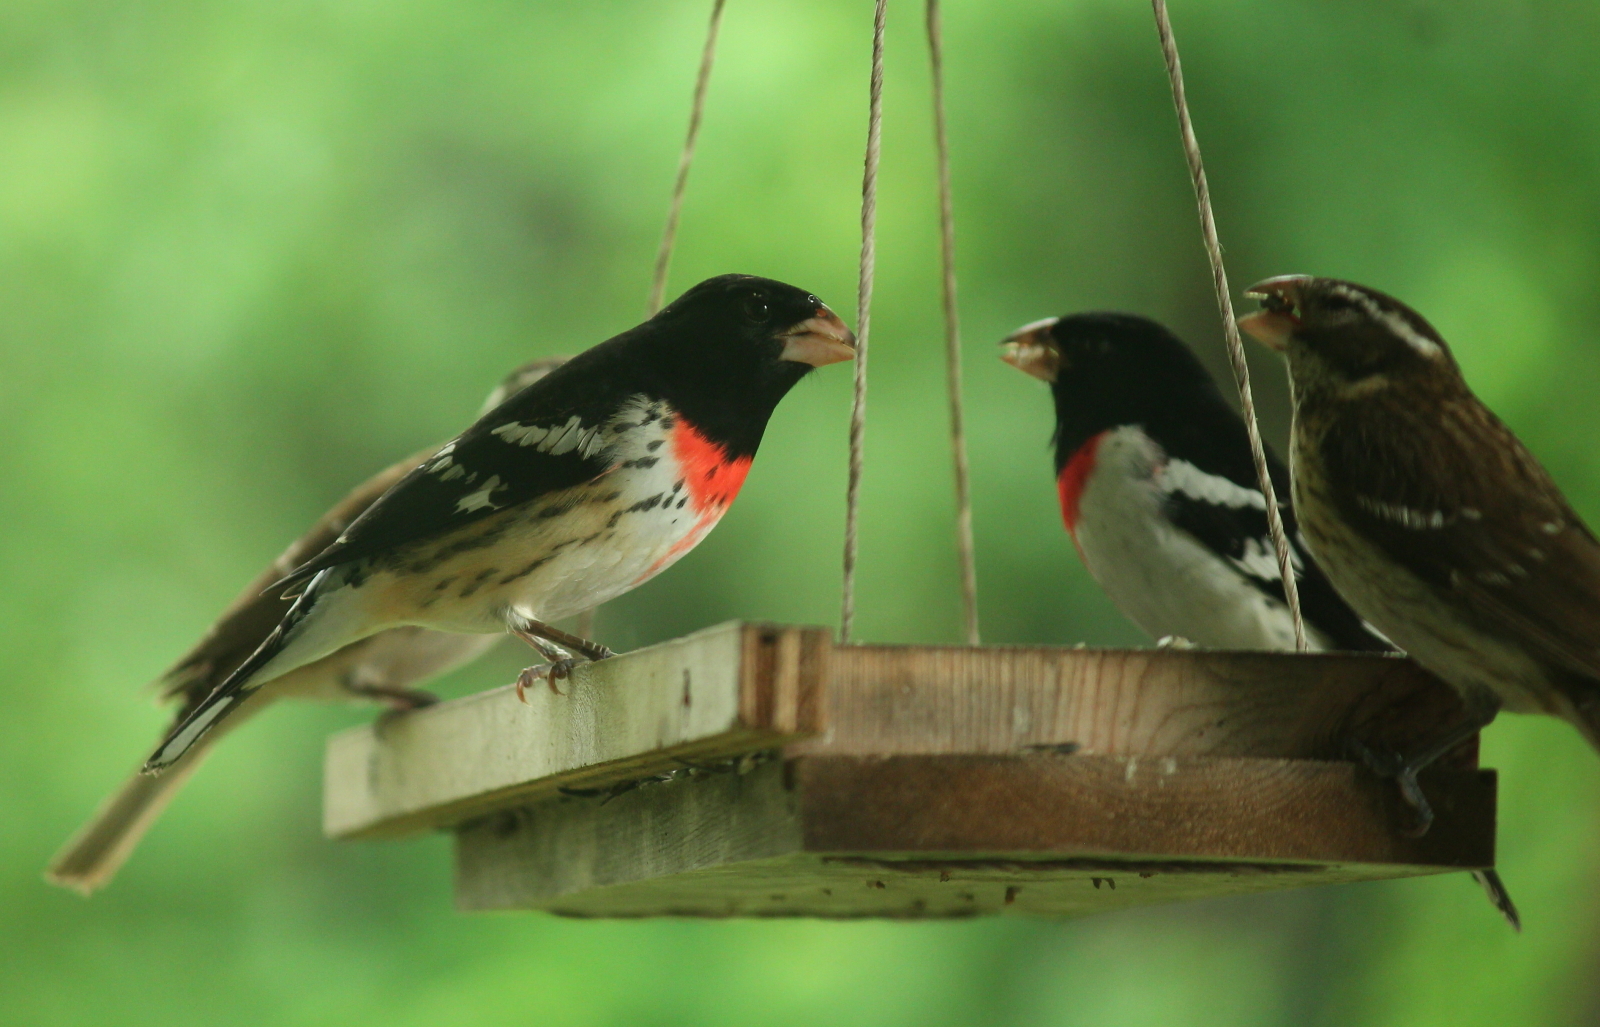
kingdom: Animalia
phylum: Chordata
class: Aves
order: Passeriformes
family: Cardinalidae
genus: Pheucticus
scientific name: Pheucticus ludovicianus
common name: Rose-breasted grosbeak
